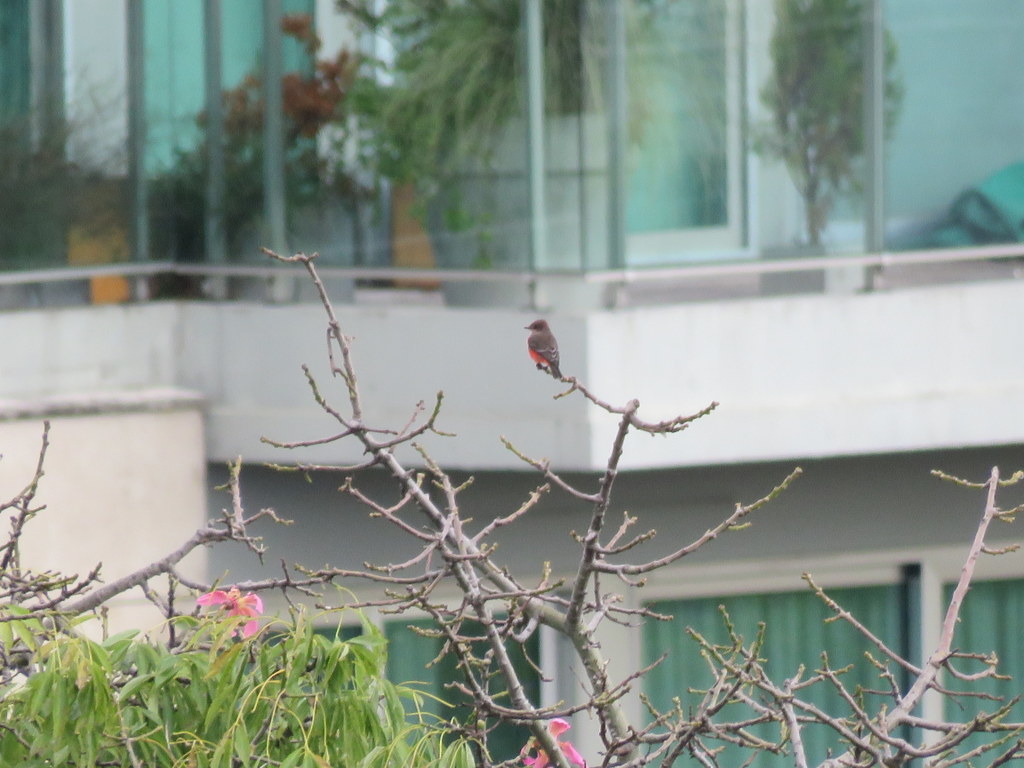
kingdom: Animalia
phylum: Chordata
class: Aves
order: Passeriformes
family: Tyrannidae
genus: Pyrocephalus
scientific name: Pyrocephalus rubinus
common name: Vermilion flycatcher
